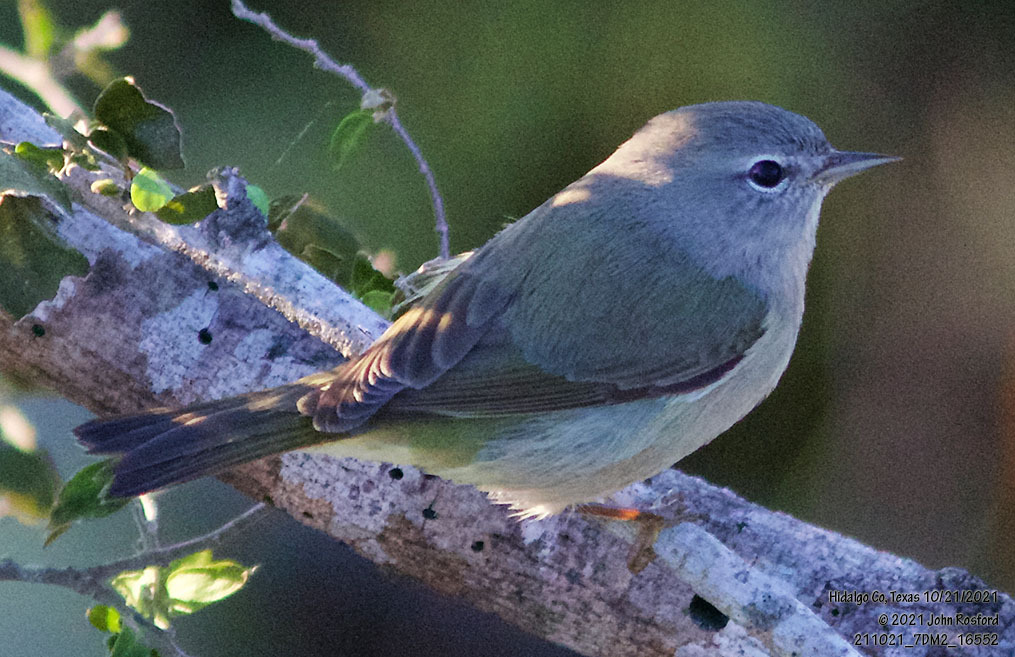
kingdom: Animalia
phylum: Chordata
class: Aves
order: Passeriformes
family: Parulidae
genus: Leiothlypis
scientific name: Leiothlypis celata
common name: Orange-crowned warbler
